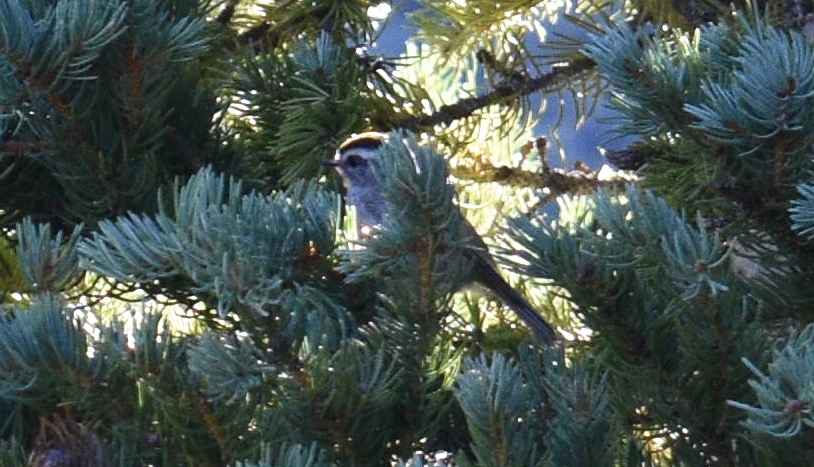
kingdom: Animalia
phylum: Chordata
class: Aves
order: Passeriformes
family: Regulidae
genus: Regulus
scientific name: Regulus satrapa
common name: Golden-crowned kinglet
